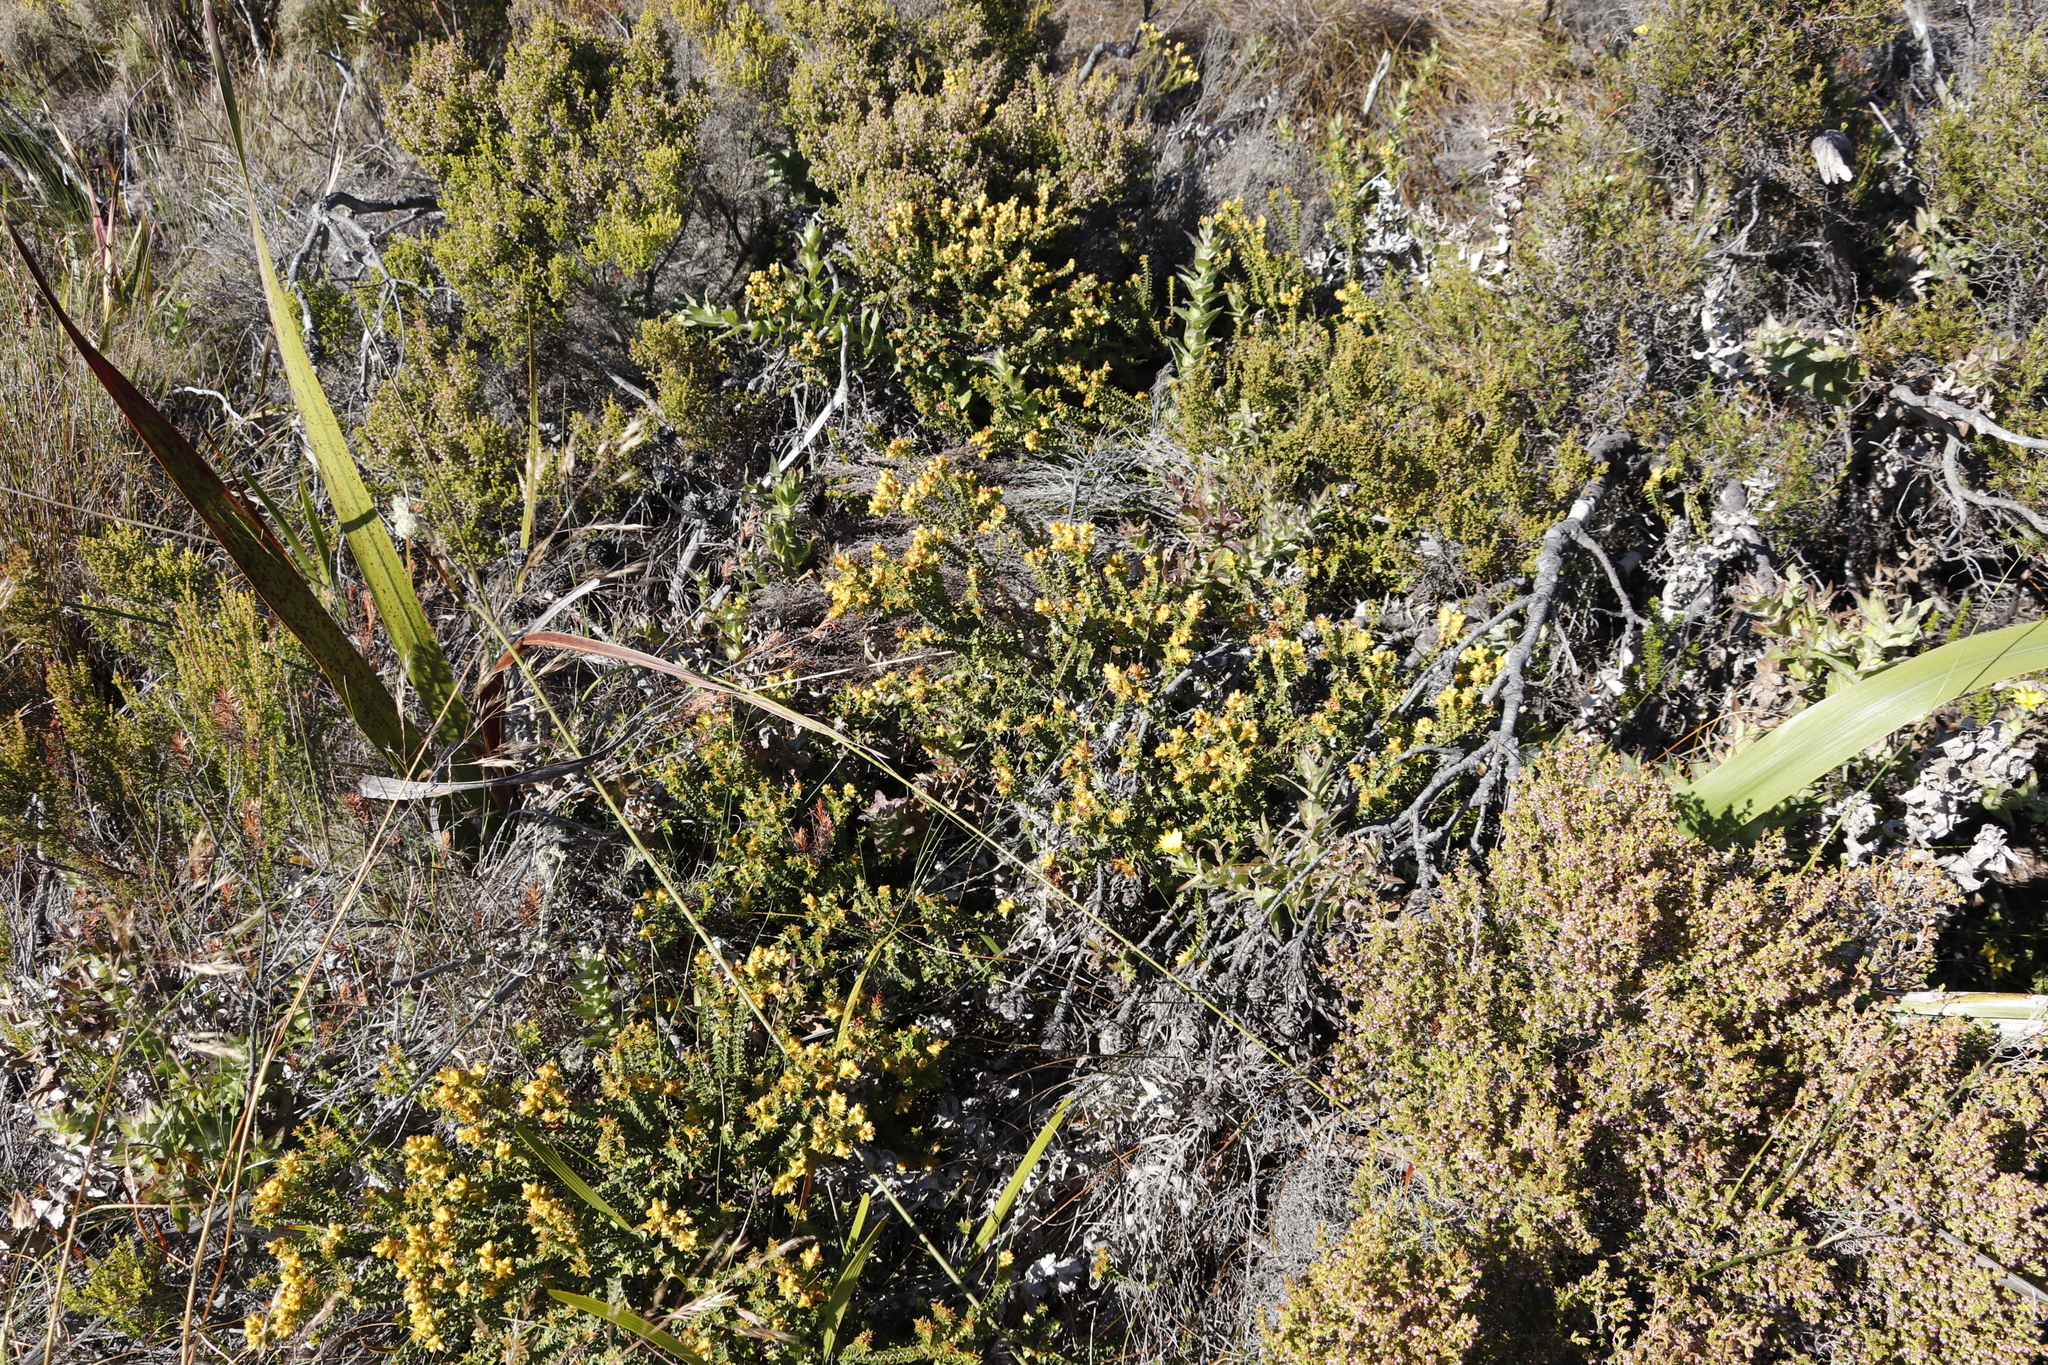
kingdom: Plantae
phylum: Tracheophyta
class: Magnoliopsida
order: Myrtales
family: Penaeaceae
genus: Penaea
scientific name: Penaea mucronata
